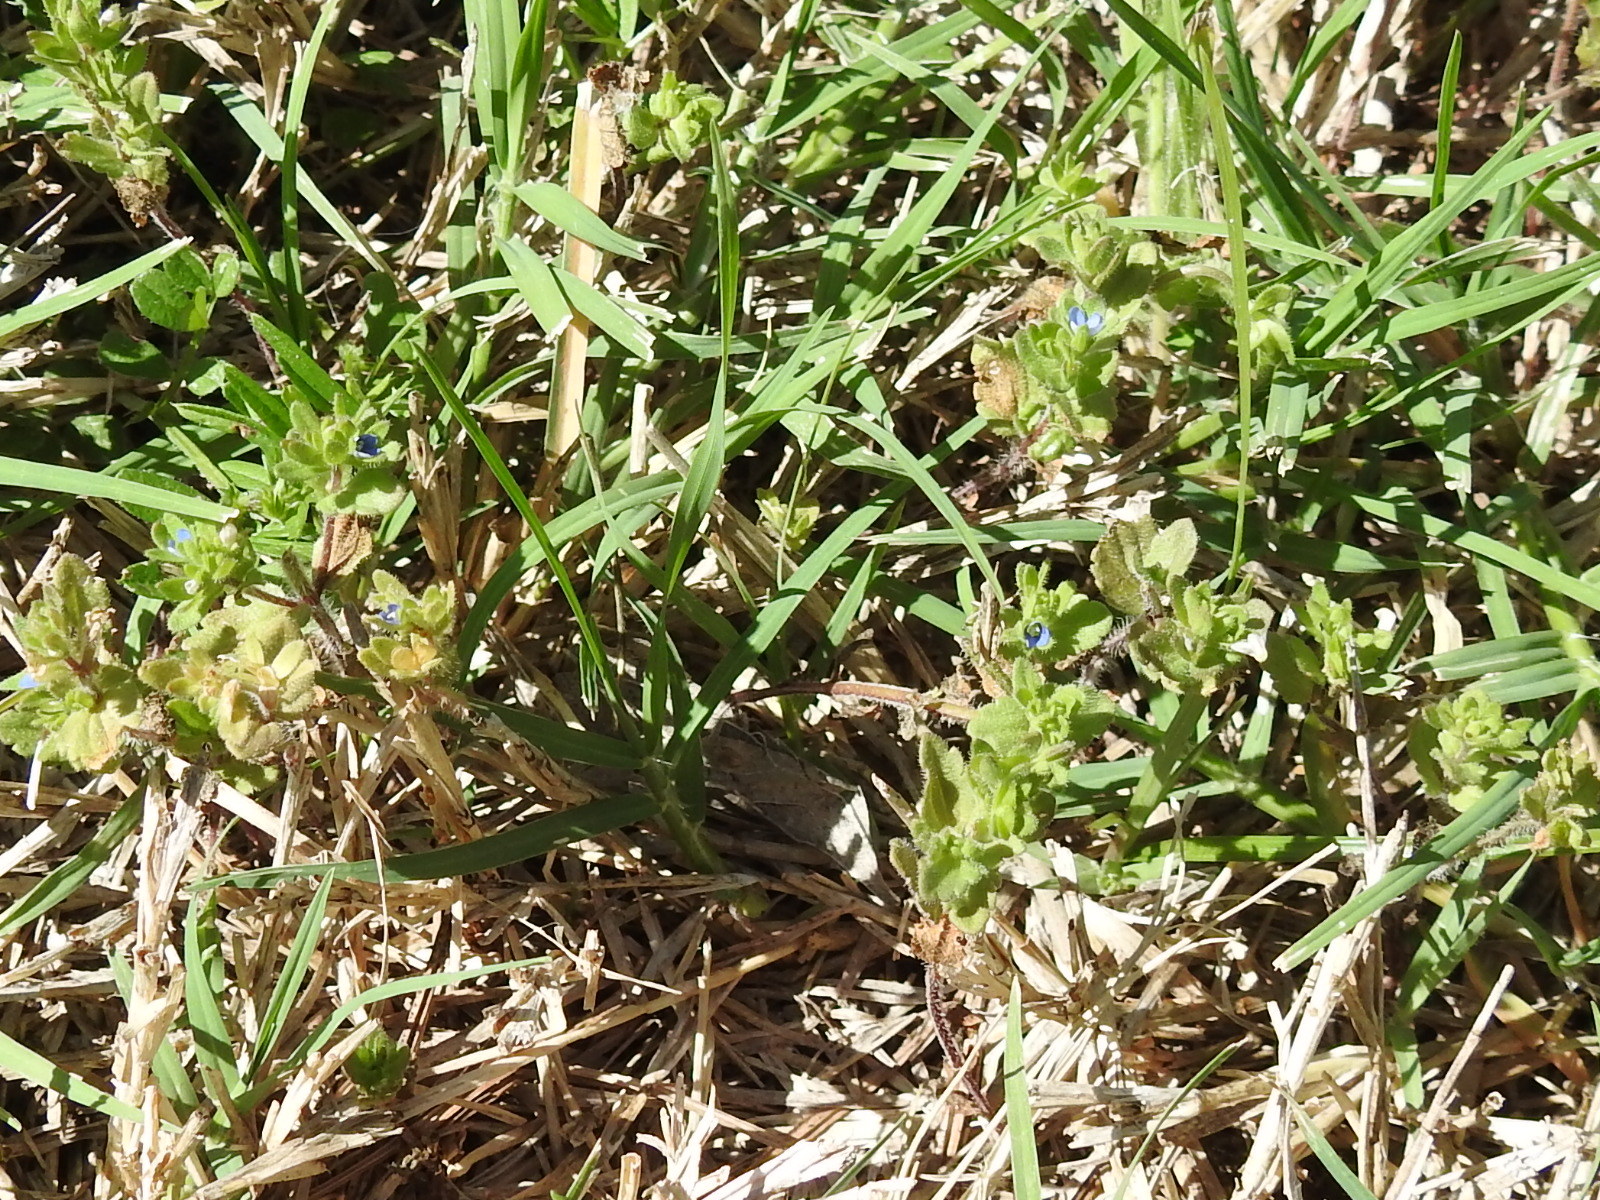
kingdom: Plantae
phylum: Tracheophyta
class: Magnoliopsida
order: Lamiales
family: Plantaginaceae
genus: Veronica
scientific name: Veronica arvensis
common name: Corn speedwell
